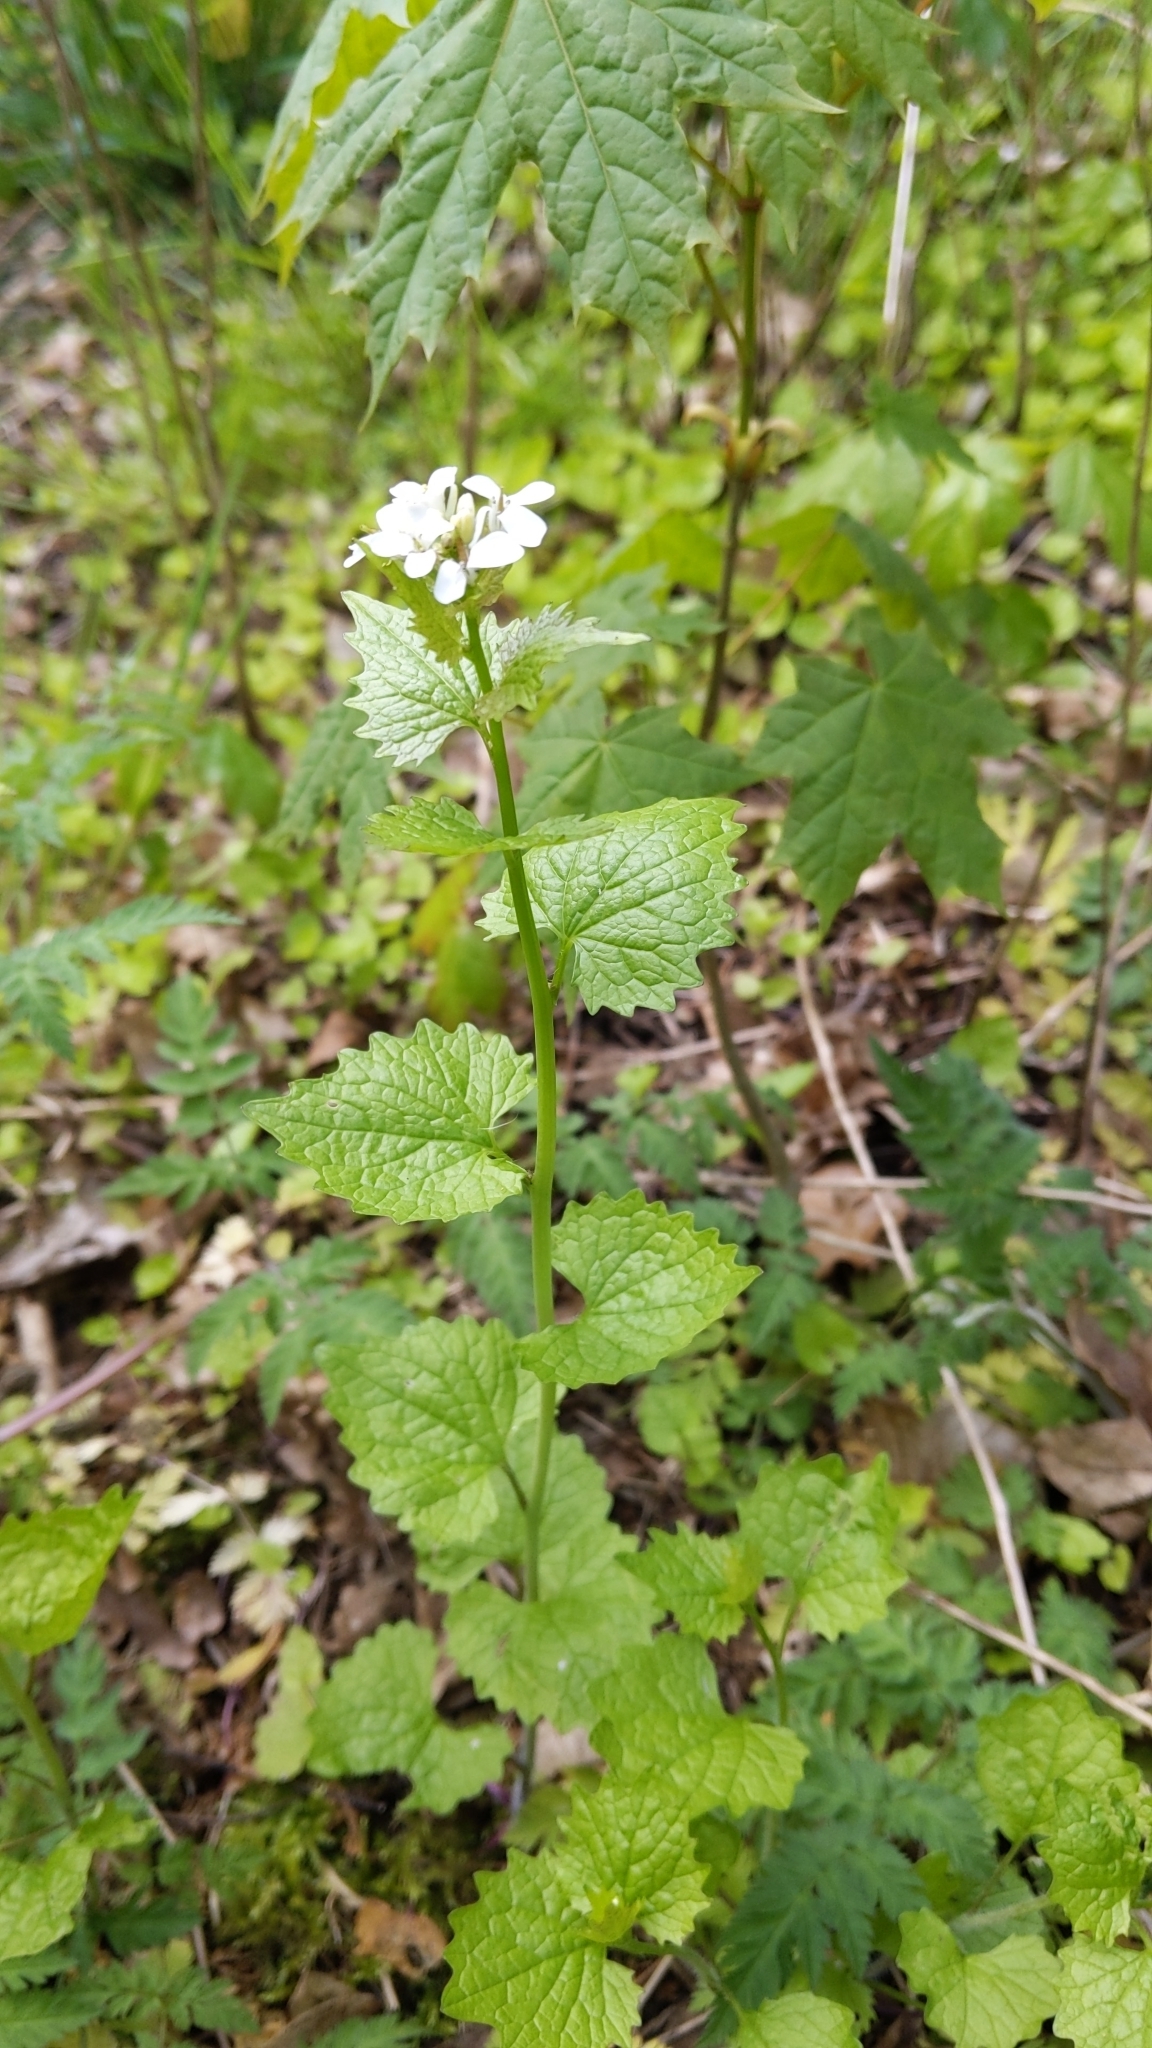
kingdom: Plantae
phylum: Tracheophyta
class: Magnoliopsida
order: Brassicales
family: Brassicaceae
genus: Alliaria
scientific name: Alliaria petiolata
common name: Garlic mustard
